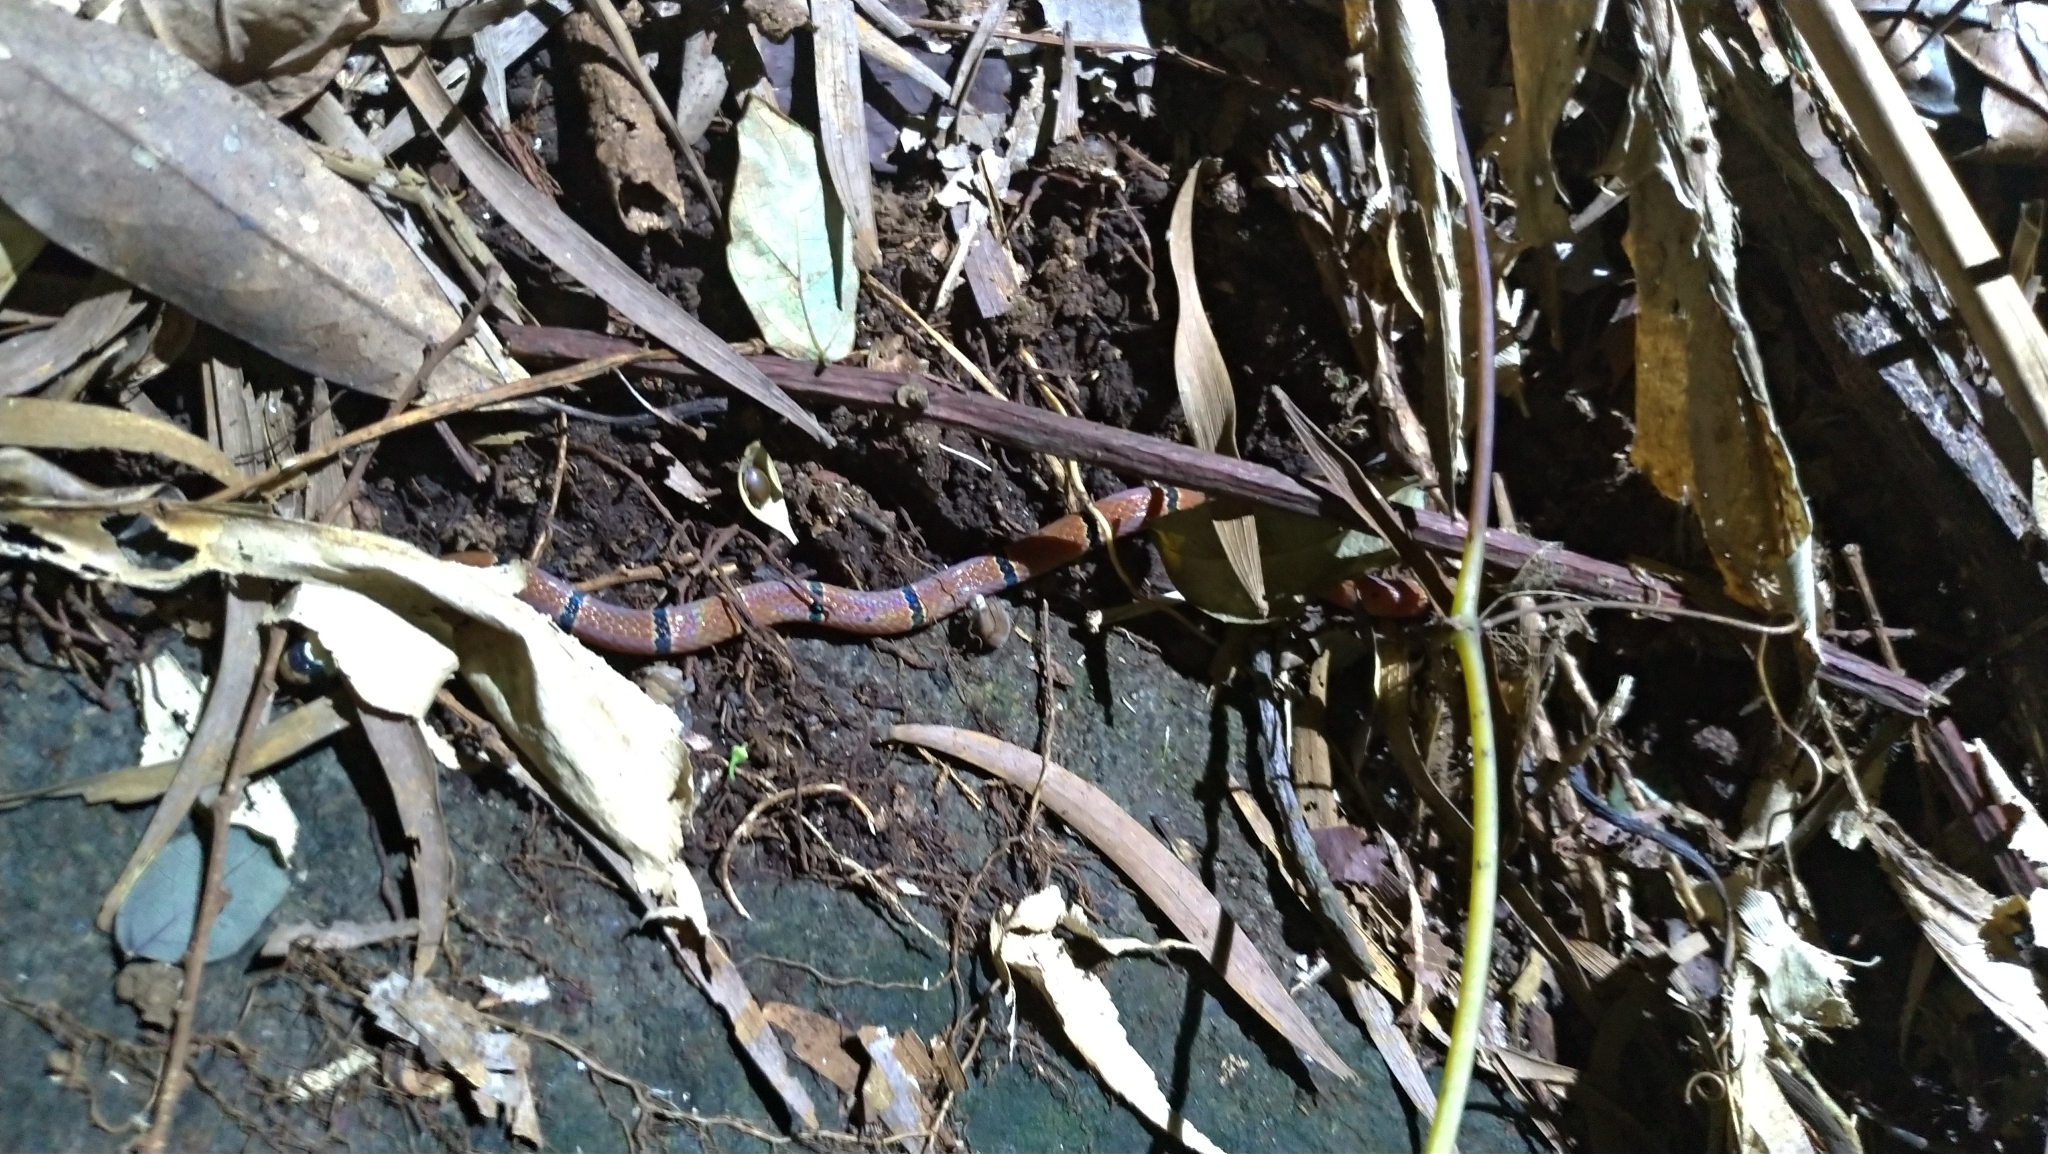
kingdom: Animalia
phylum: Chordata
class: Squamata
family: Elapidae
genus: Sinomicrurus
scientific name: Sinomicrurus swinhoei
